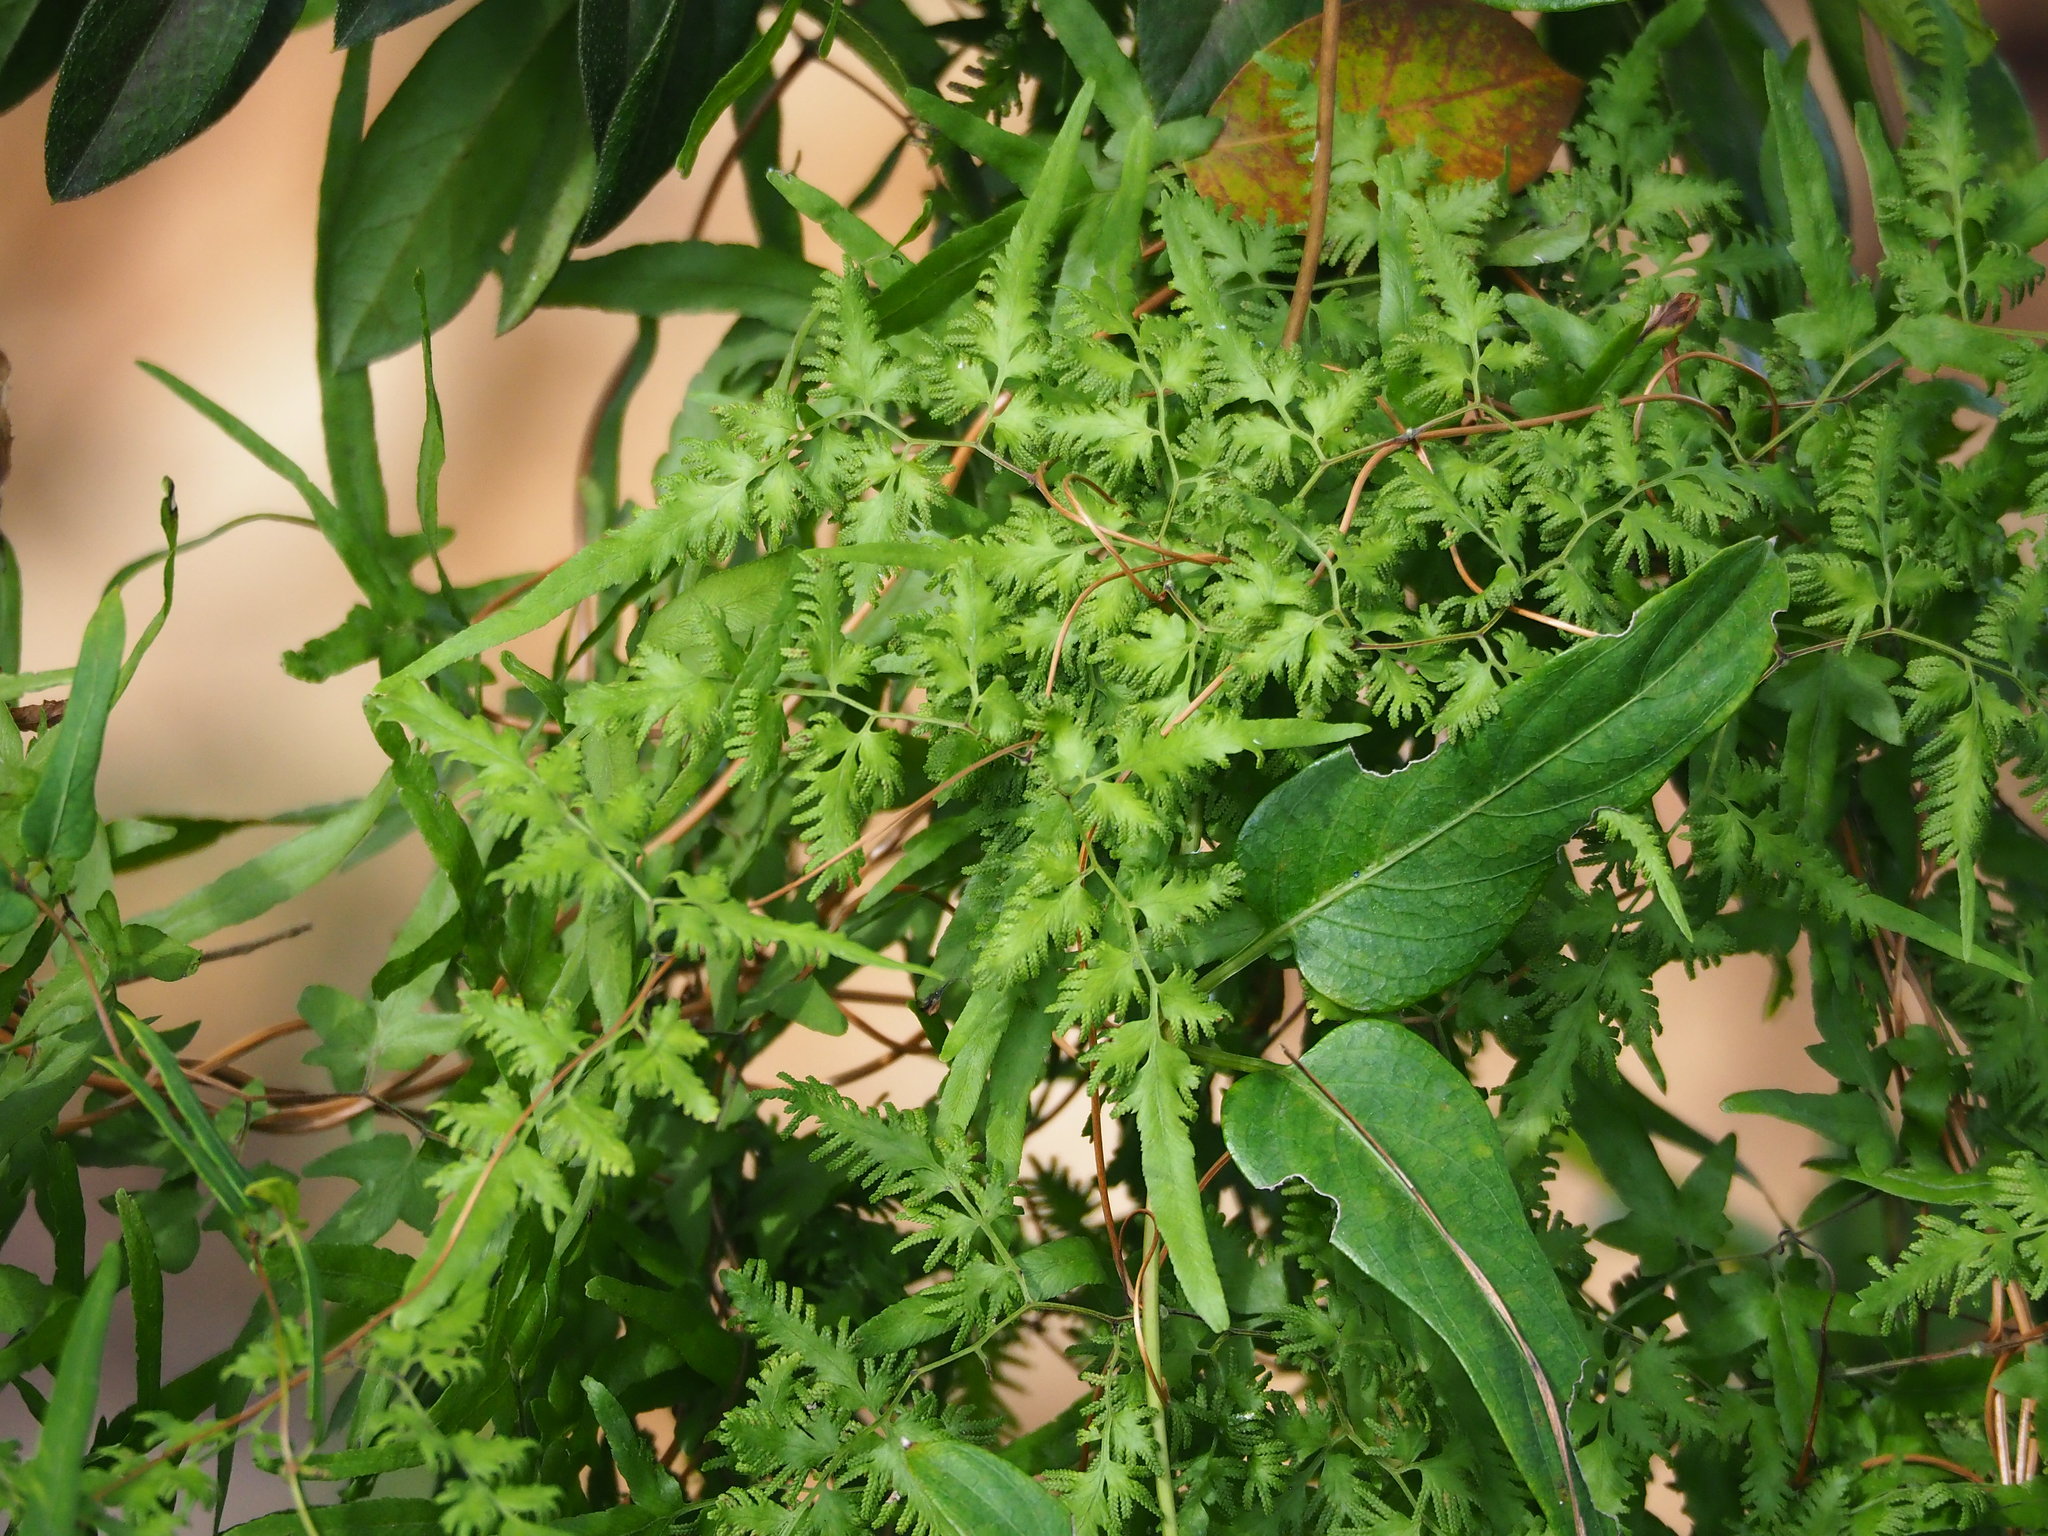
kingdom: Plantae
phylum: Tracheophyta
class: Polypodiopsida
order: Schizaeales
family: Lygodiaceae
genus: Lygodium
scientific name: Lygodium japonicum
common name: Japanese climbing fern
